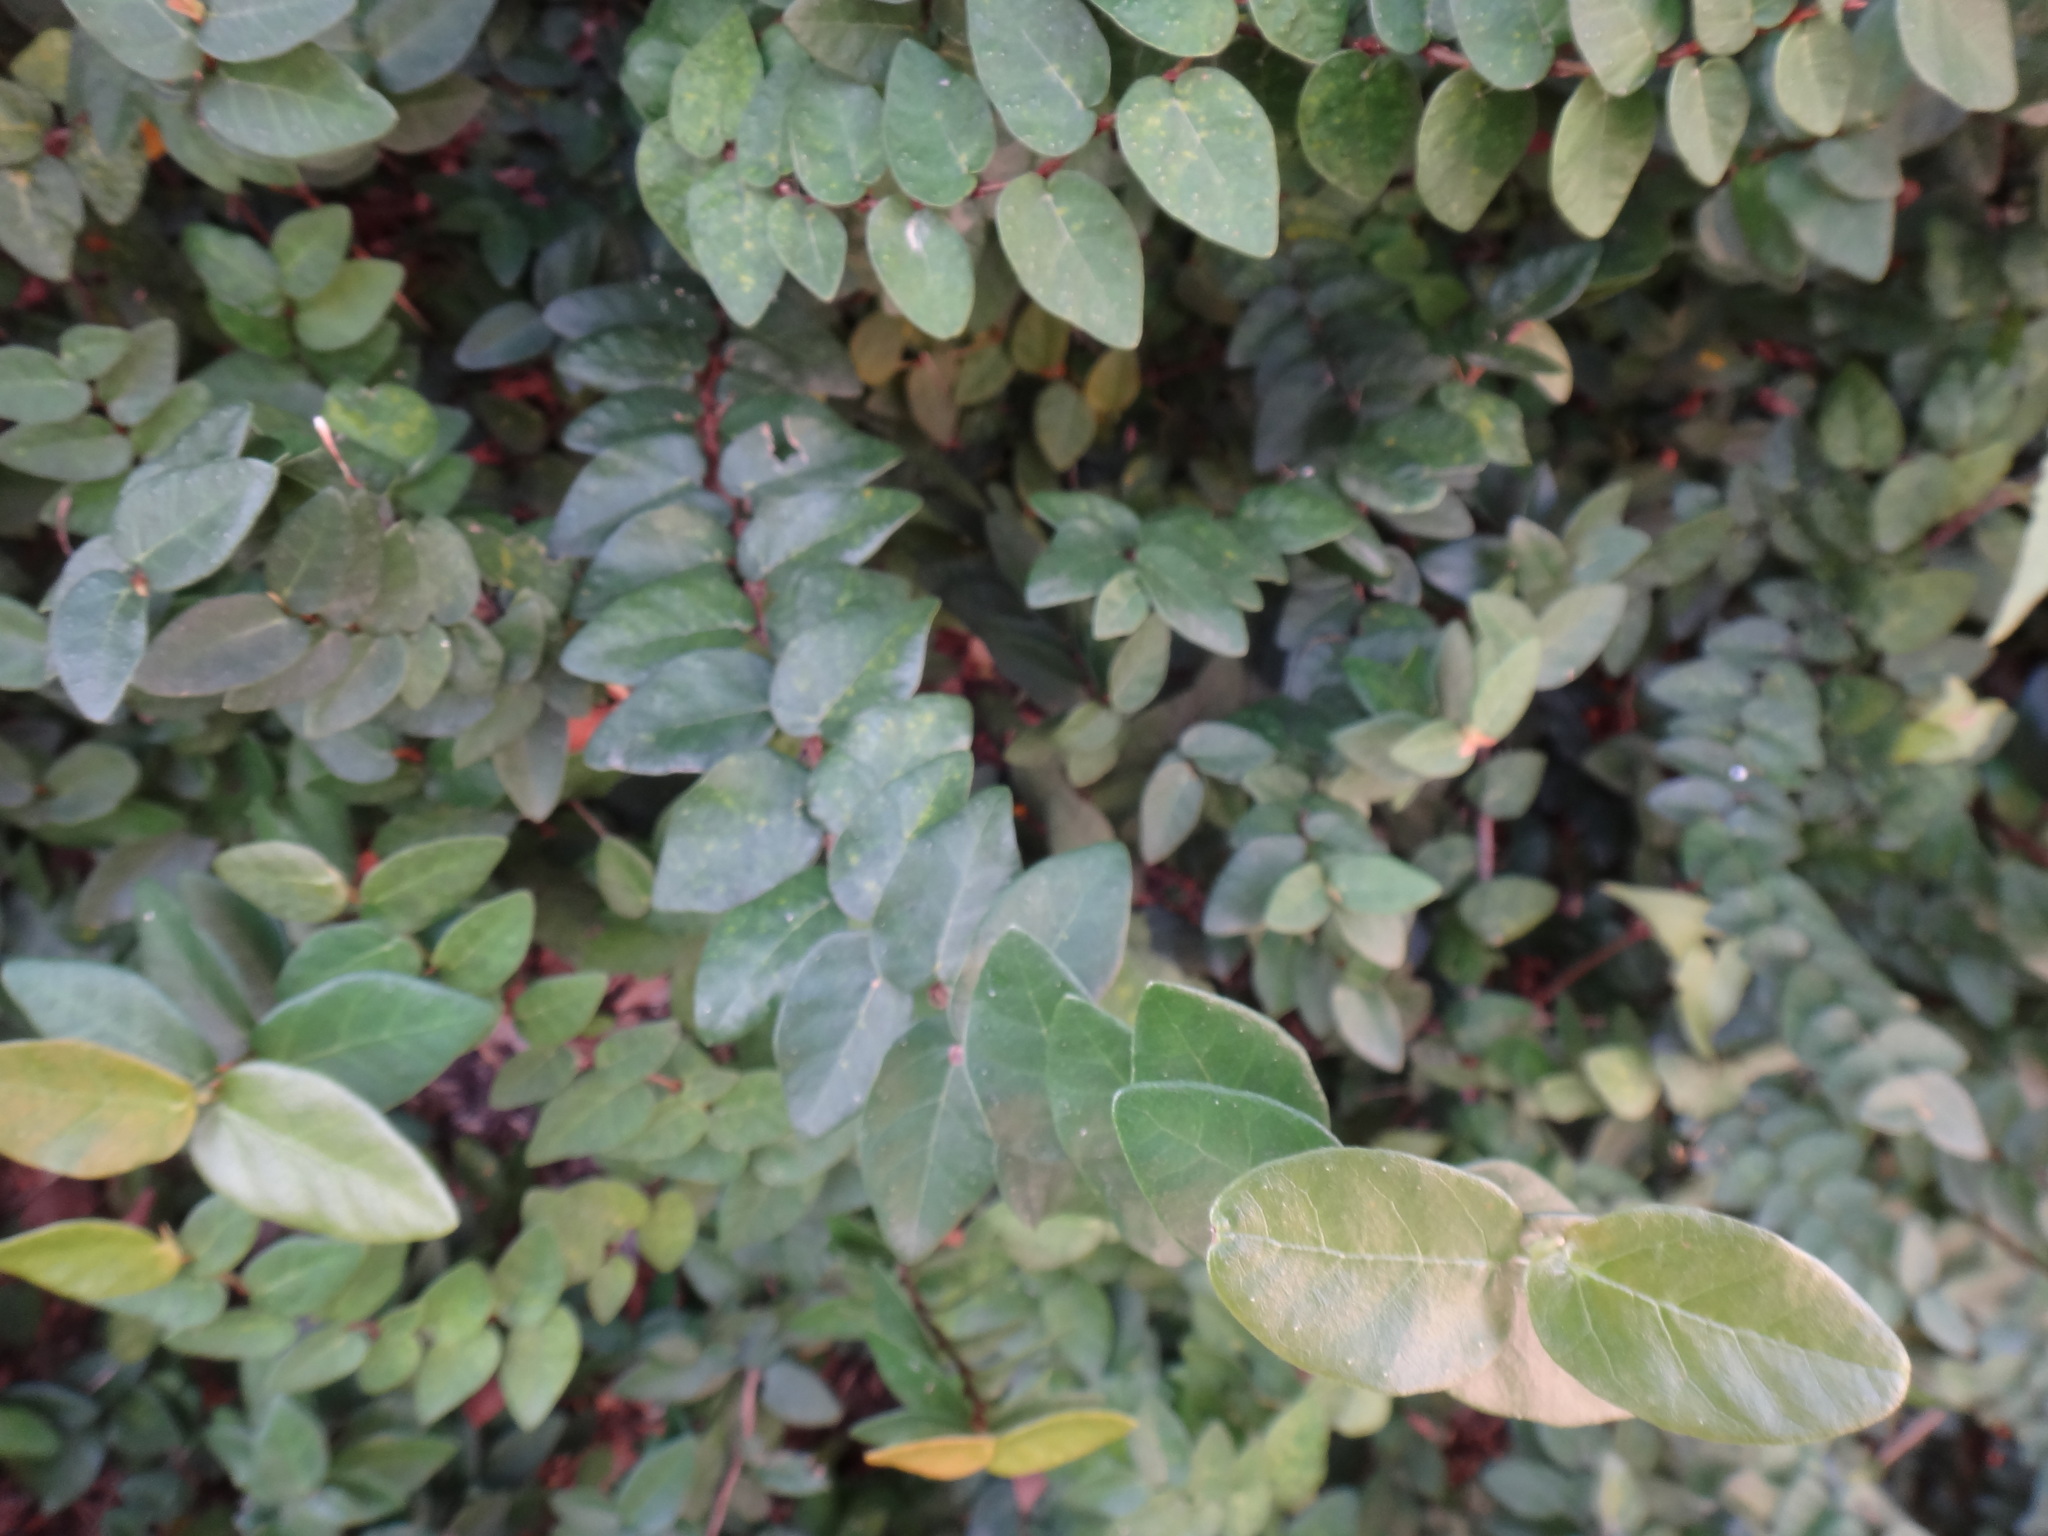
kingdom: Plantae
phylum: Tracheophyta
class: Magnoliopsida
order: Rosales
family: Moraceae
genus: Ficus
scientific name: Ficus pumila
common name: Climbingfig
